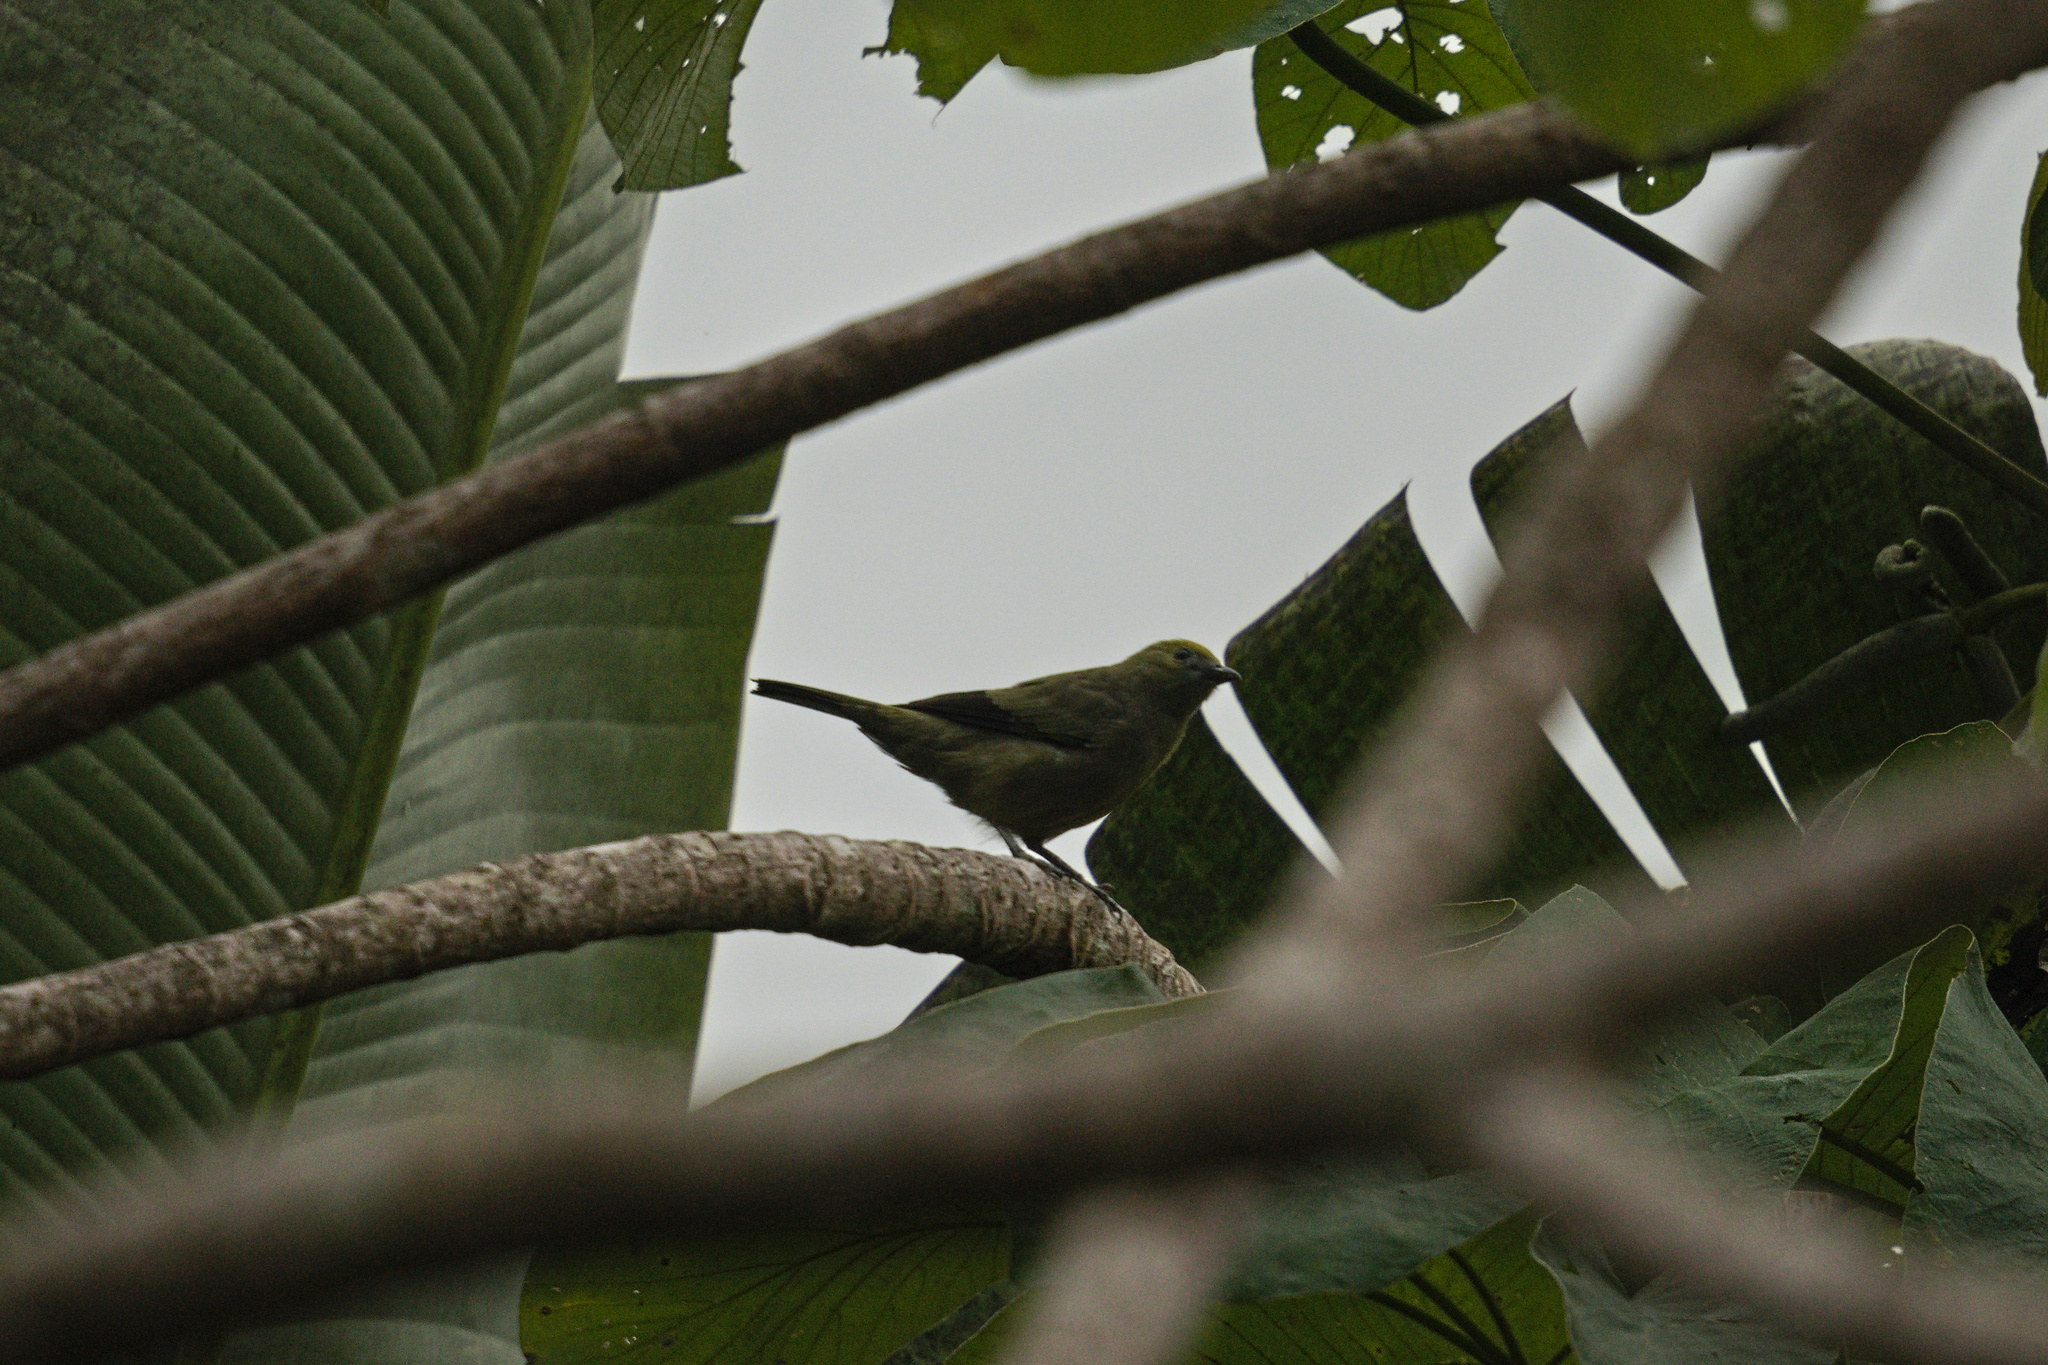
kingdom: Animalia
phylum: Chordata
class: Aves
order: Passeriformes
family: Thraupidae
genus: Thraupis
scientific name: Thraupis palmarum
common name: Palm tanager
